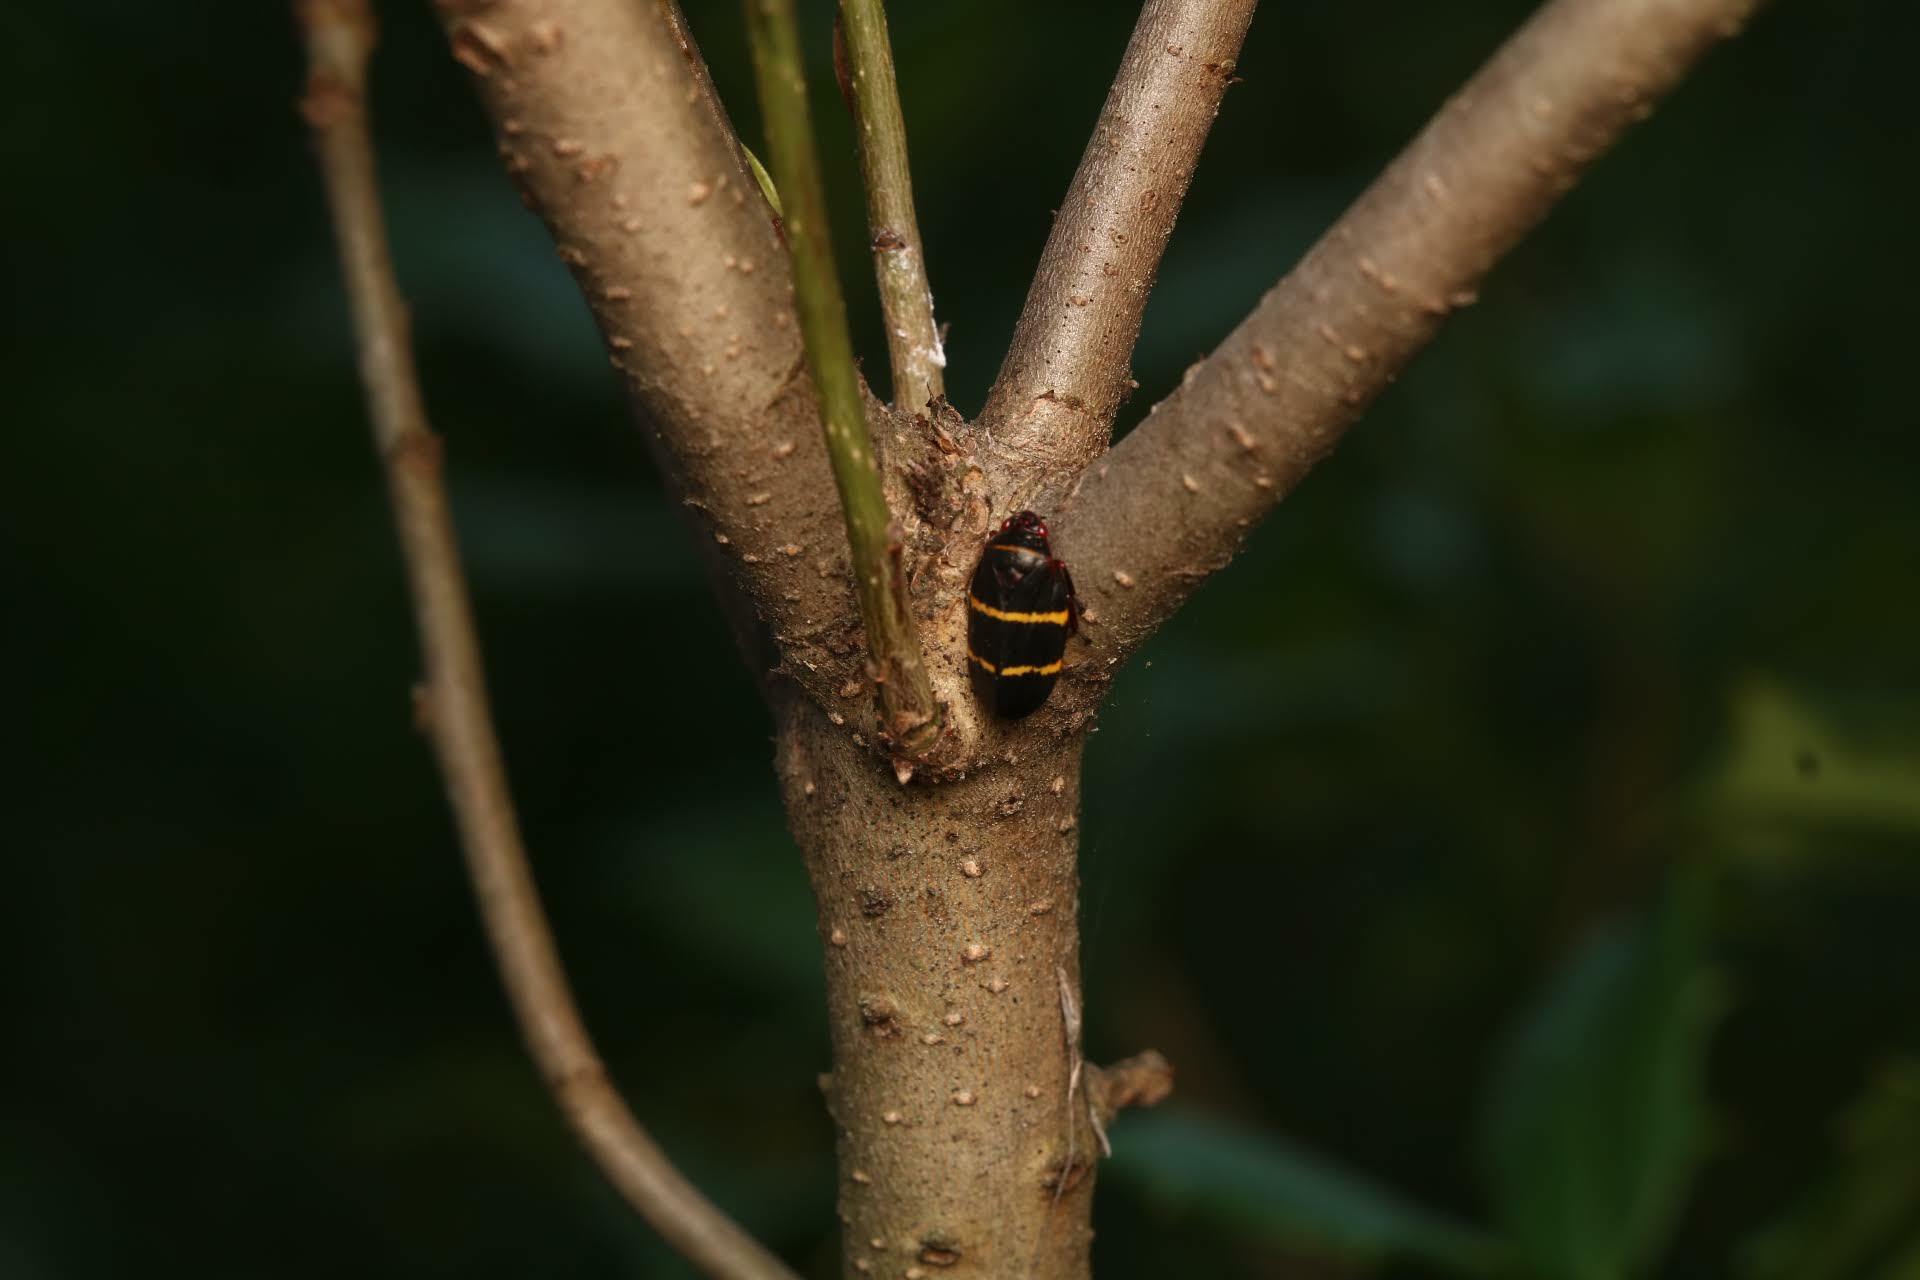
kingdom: Animalia
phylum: Arthropoda
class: Insecta
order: Hemiptera
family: Cercopidae
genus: Prosapia
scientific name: Prosapia bicincta
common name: Twolined spittlebug
